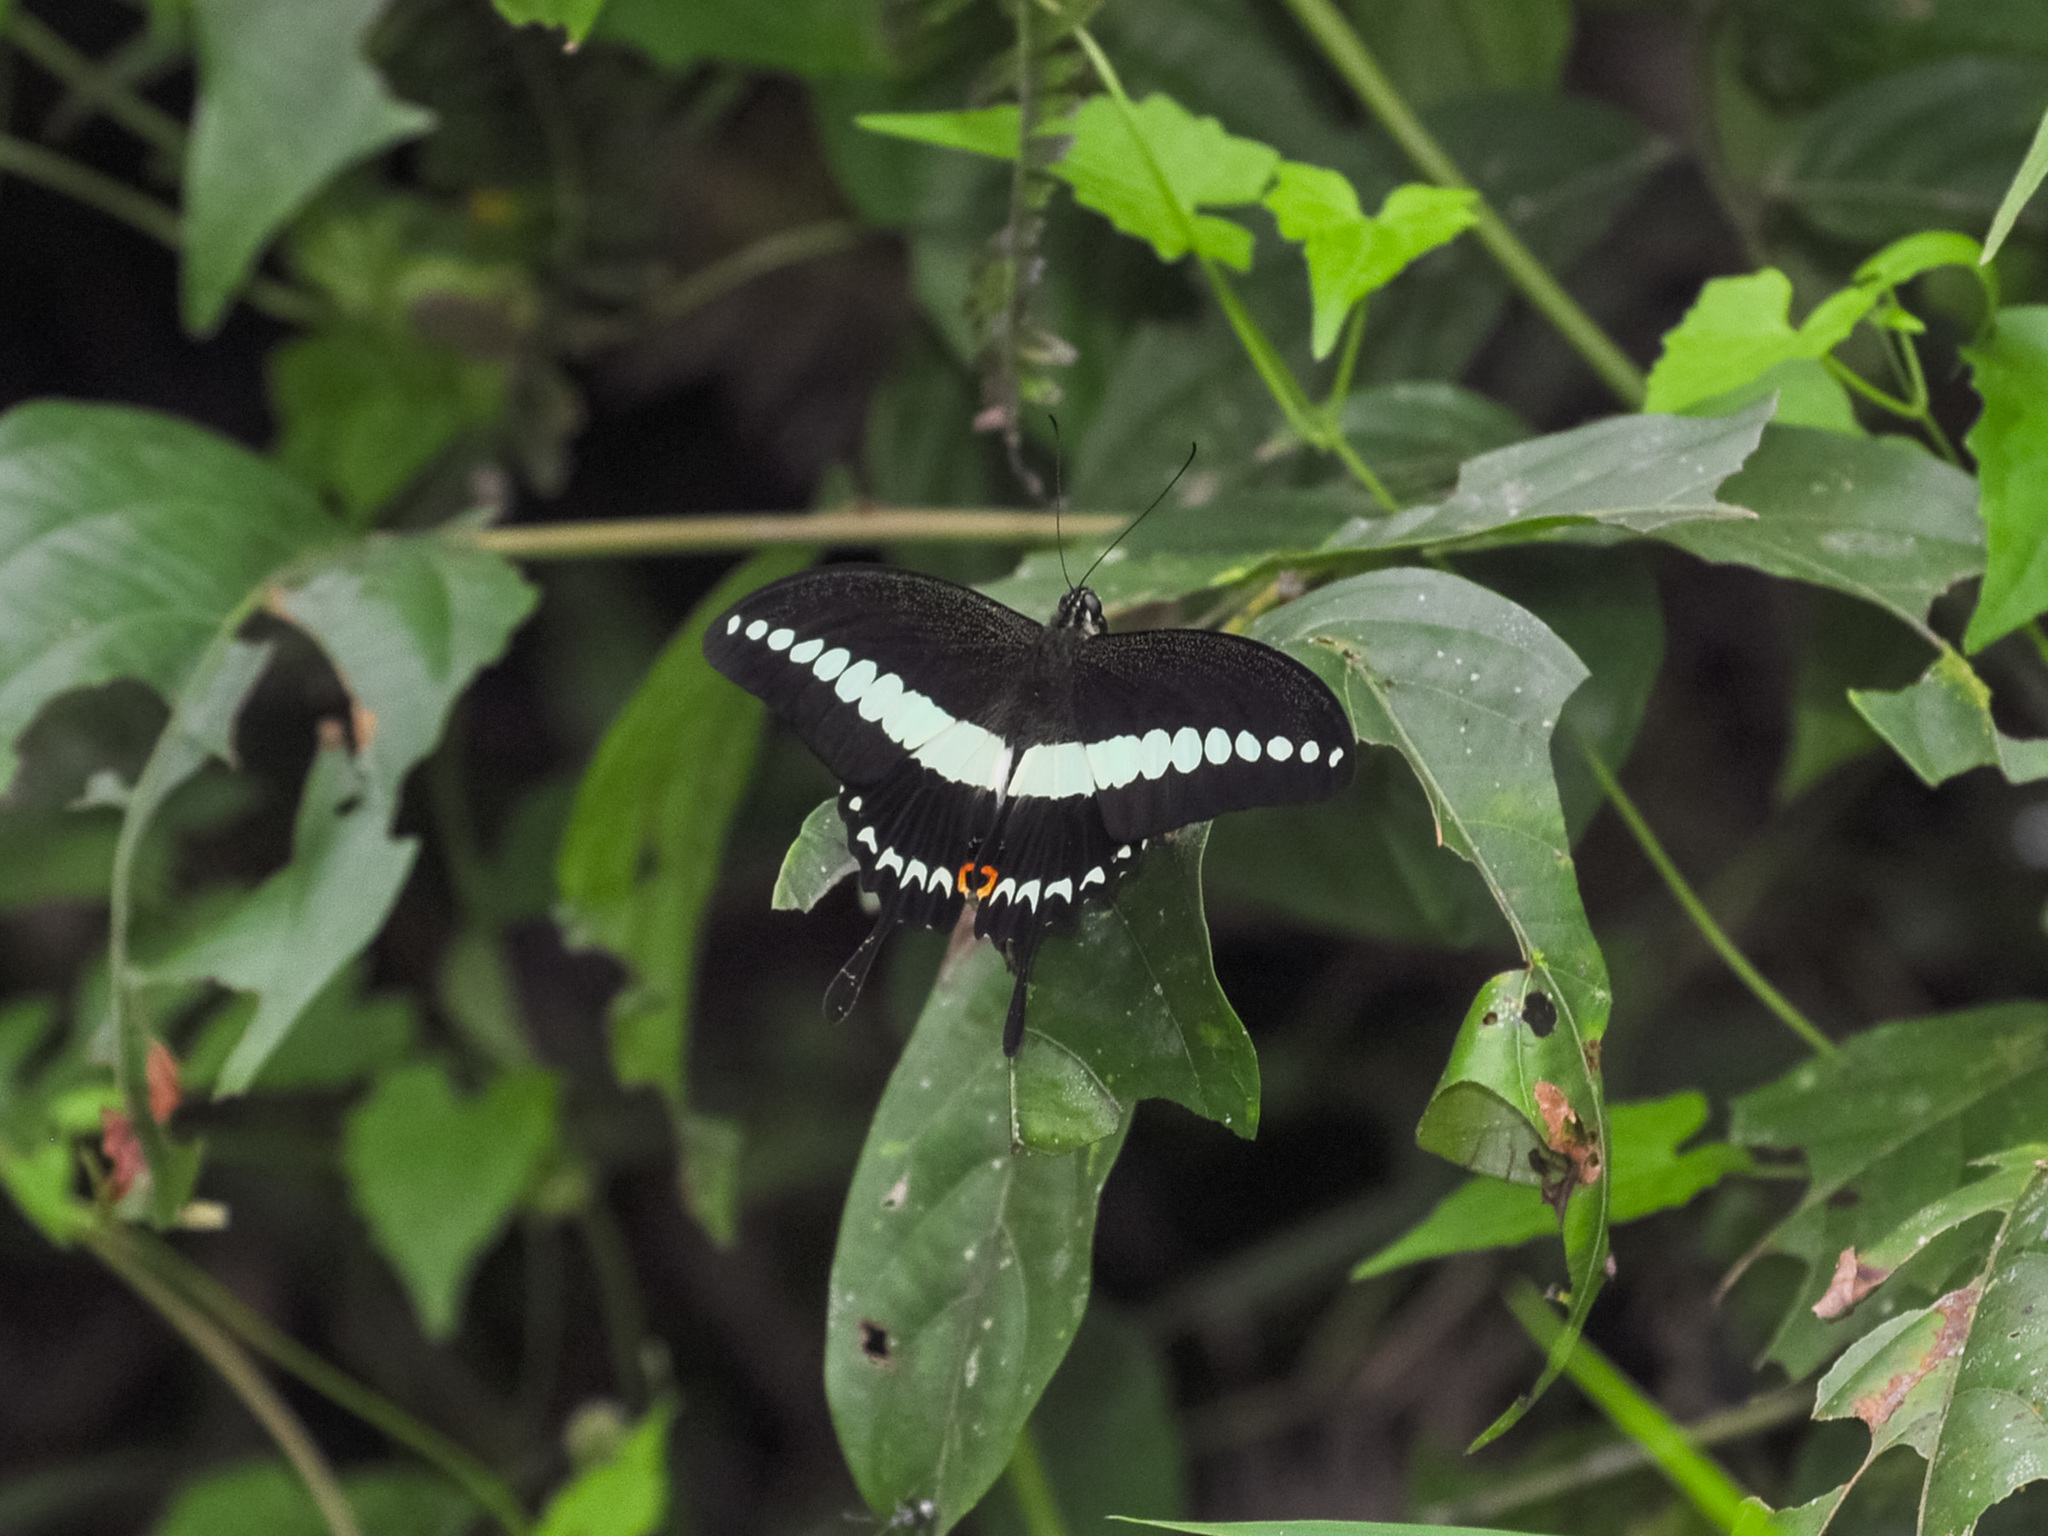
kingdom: Animalia
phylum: Arthropoda
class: Insecta
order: Lepidoptera
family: Papilionidae
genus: Papilio
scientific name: Papilio demolion
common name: Banded swallowtail
